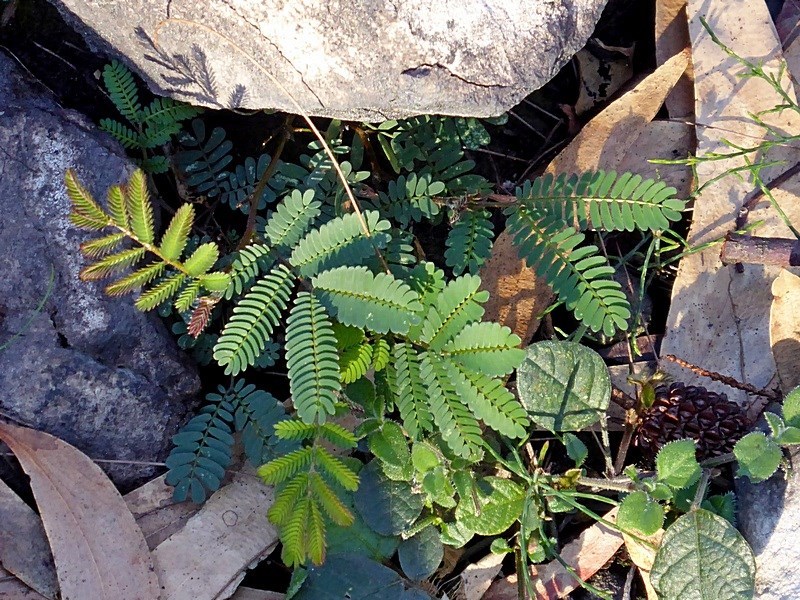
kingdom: Plantae
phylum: Tracheophyta
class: Magnoliopsida
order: Fabales
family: Fabaceae
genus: Acacia
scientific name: Acacia constablei
